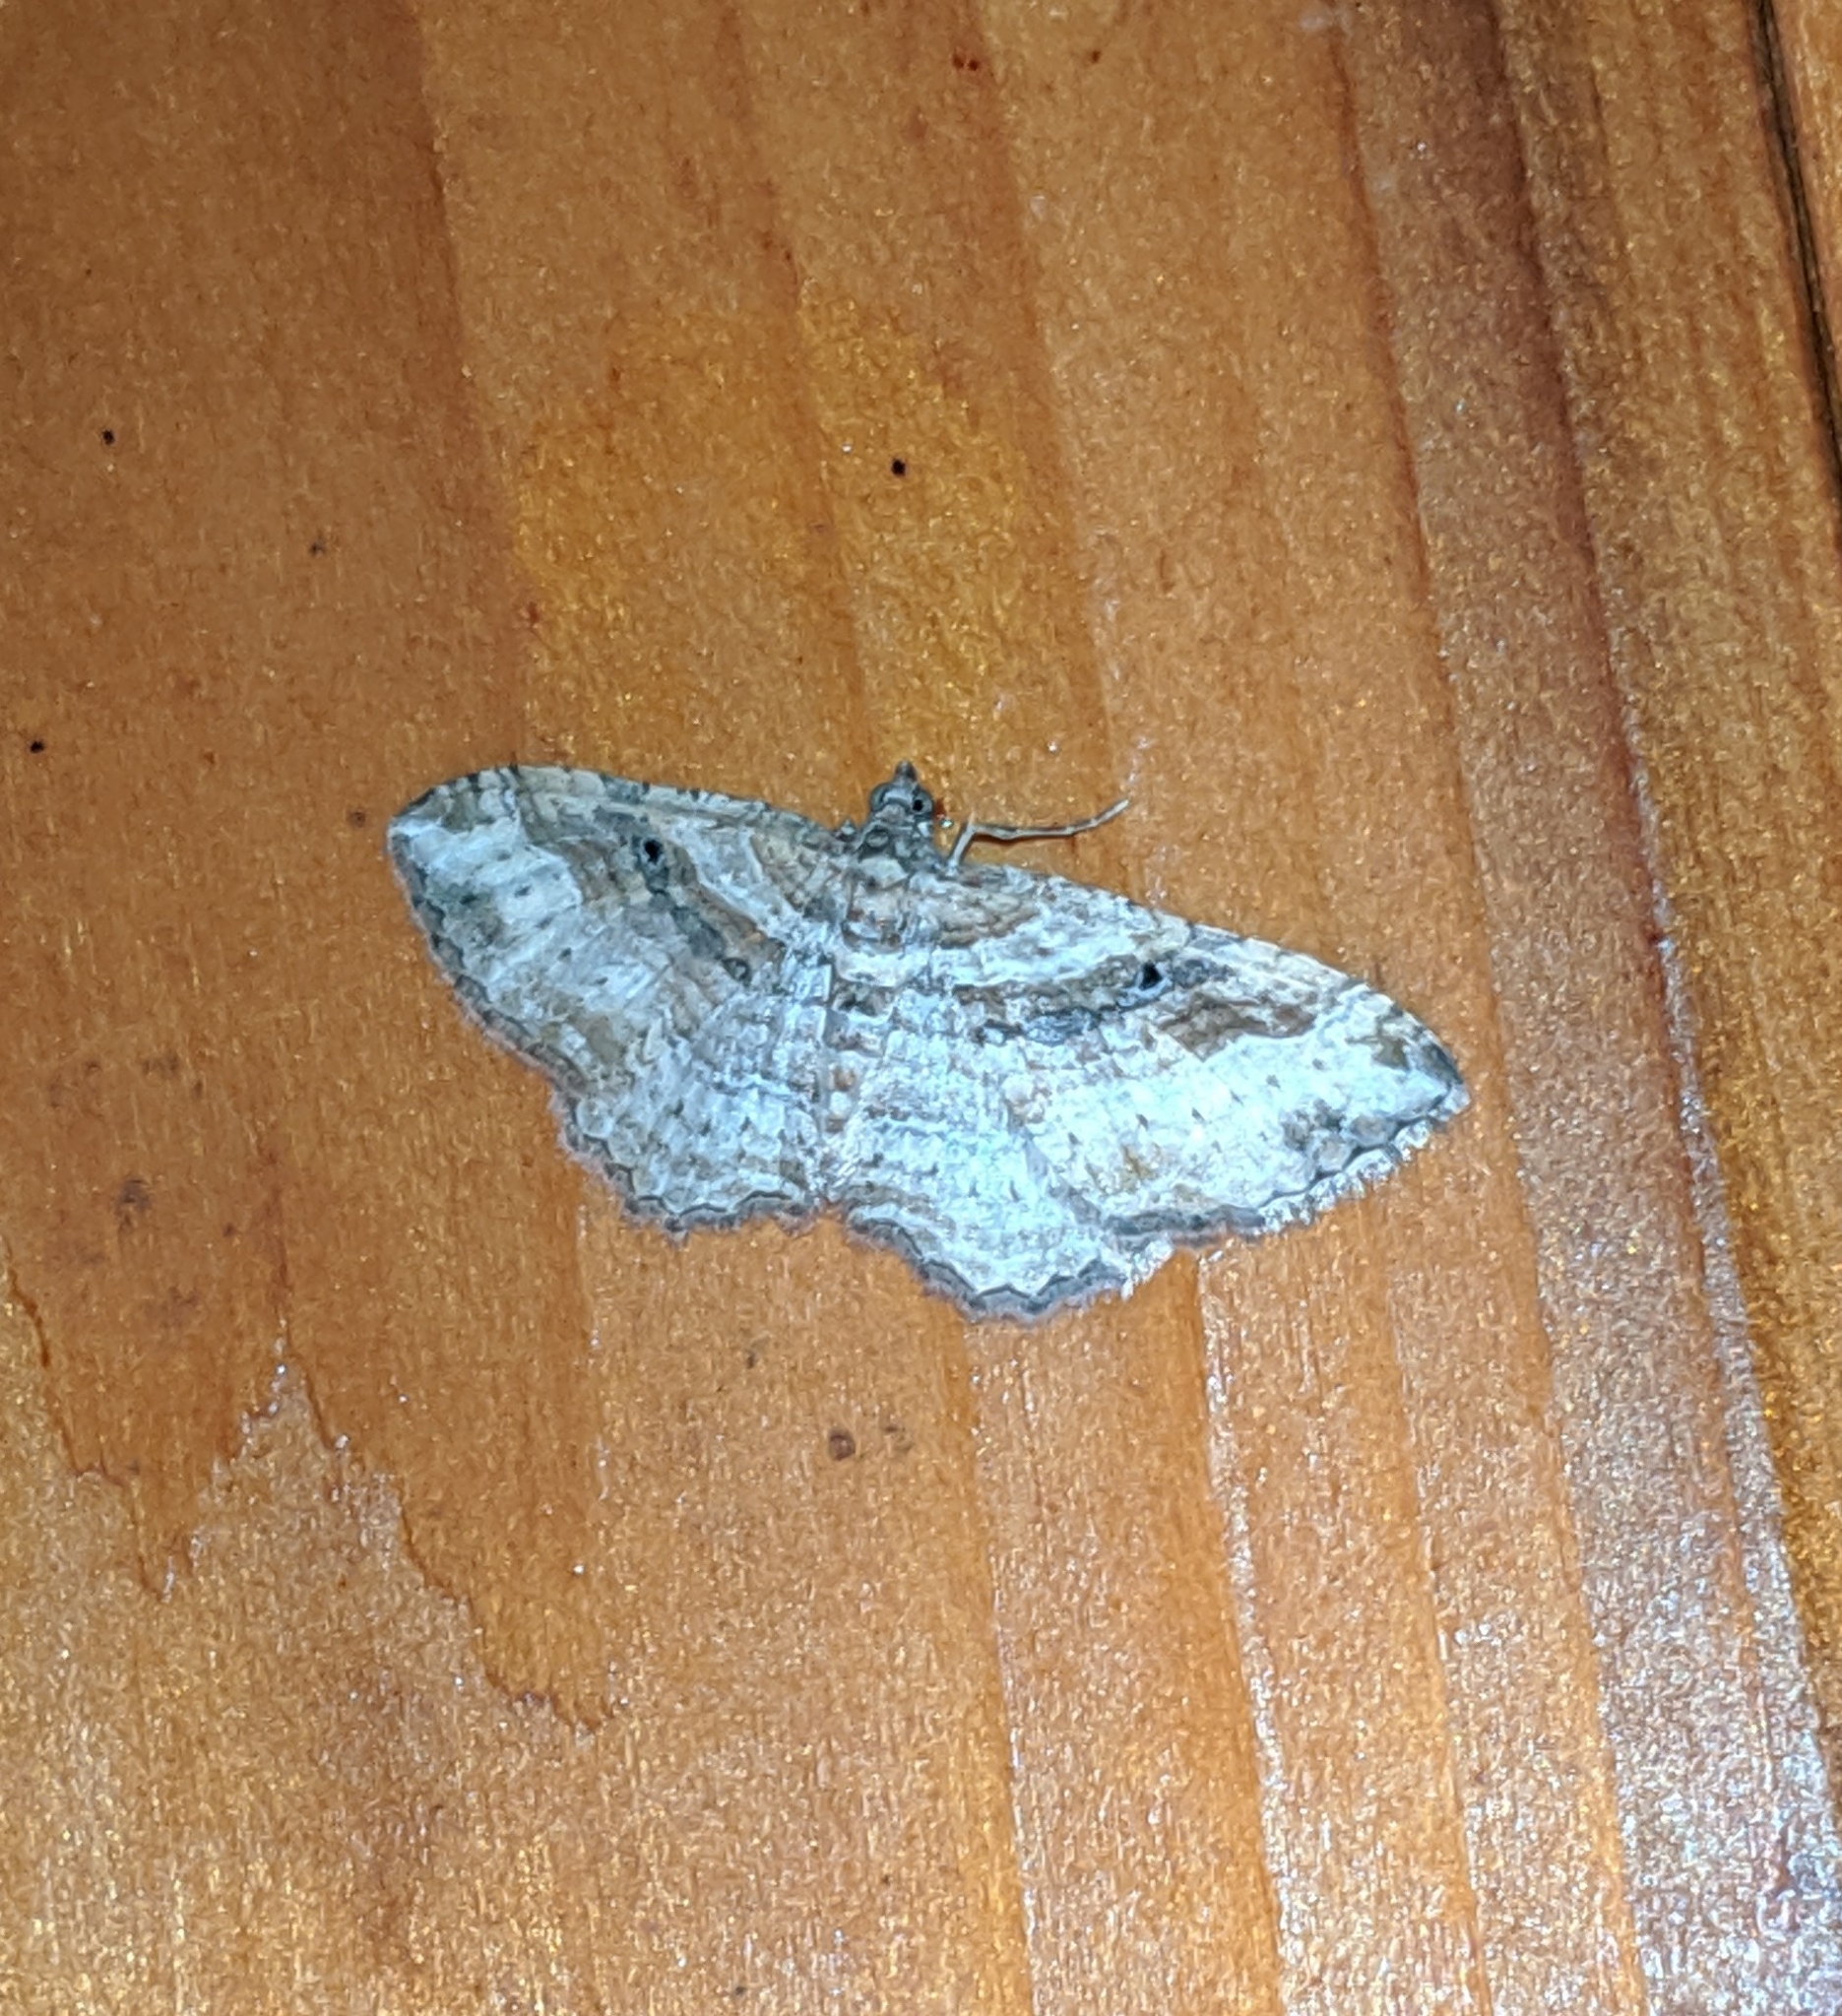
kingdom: Animalia
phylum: Arthropoda
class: Insecta
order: Lepidoptera
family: Geometridae
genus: Costaconvexa
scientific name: Costaconvexa centrostrigaria
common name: Bent-line carpet
